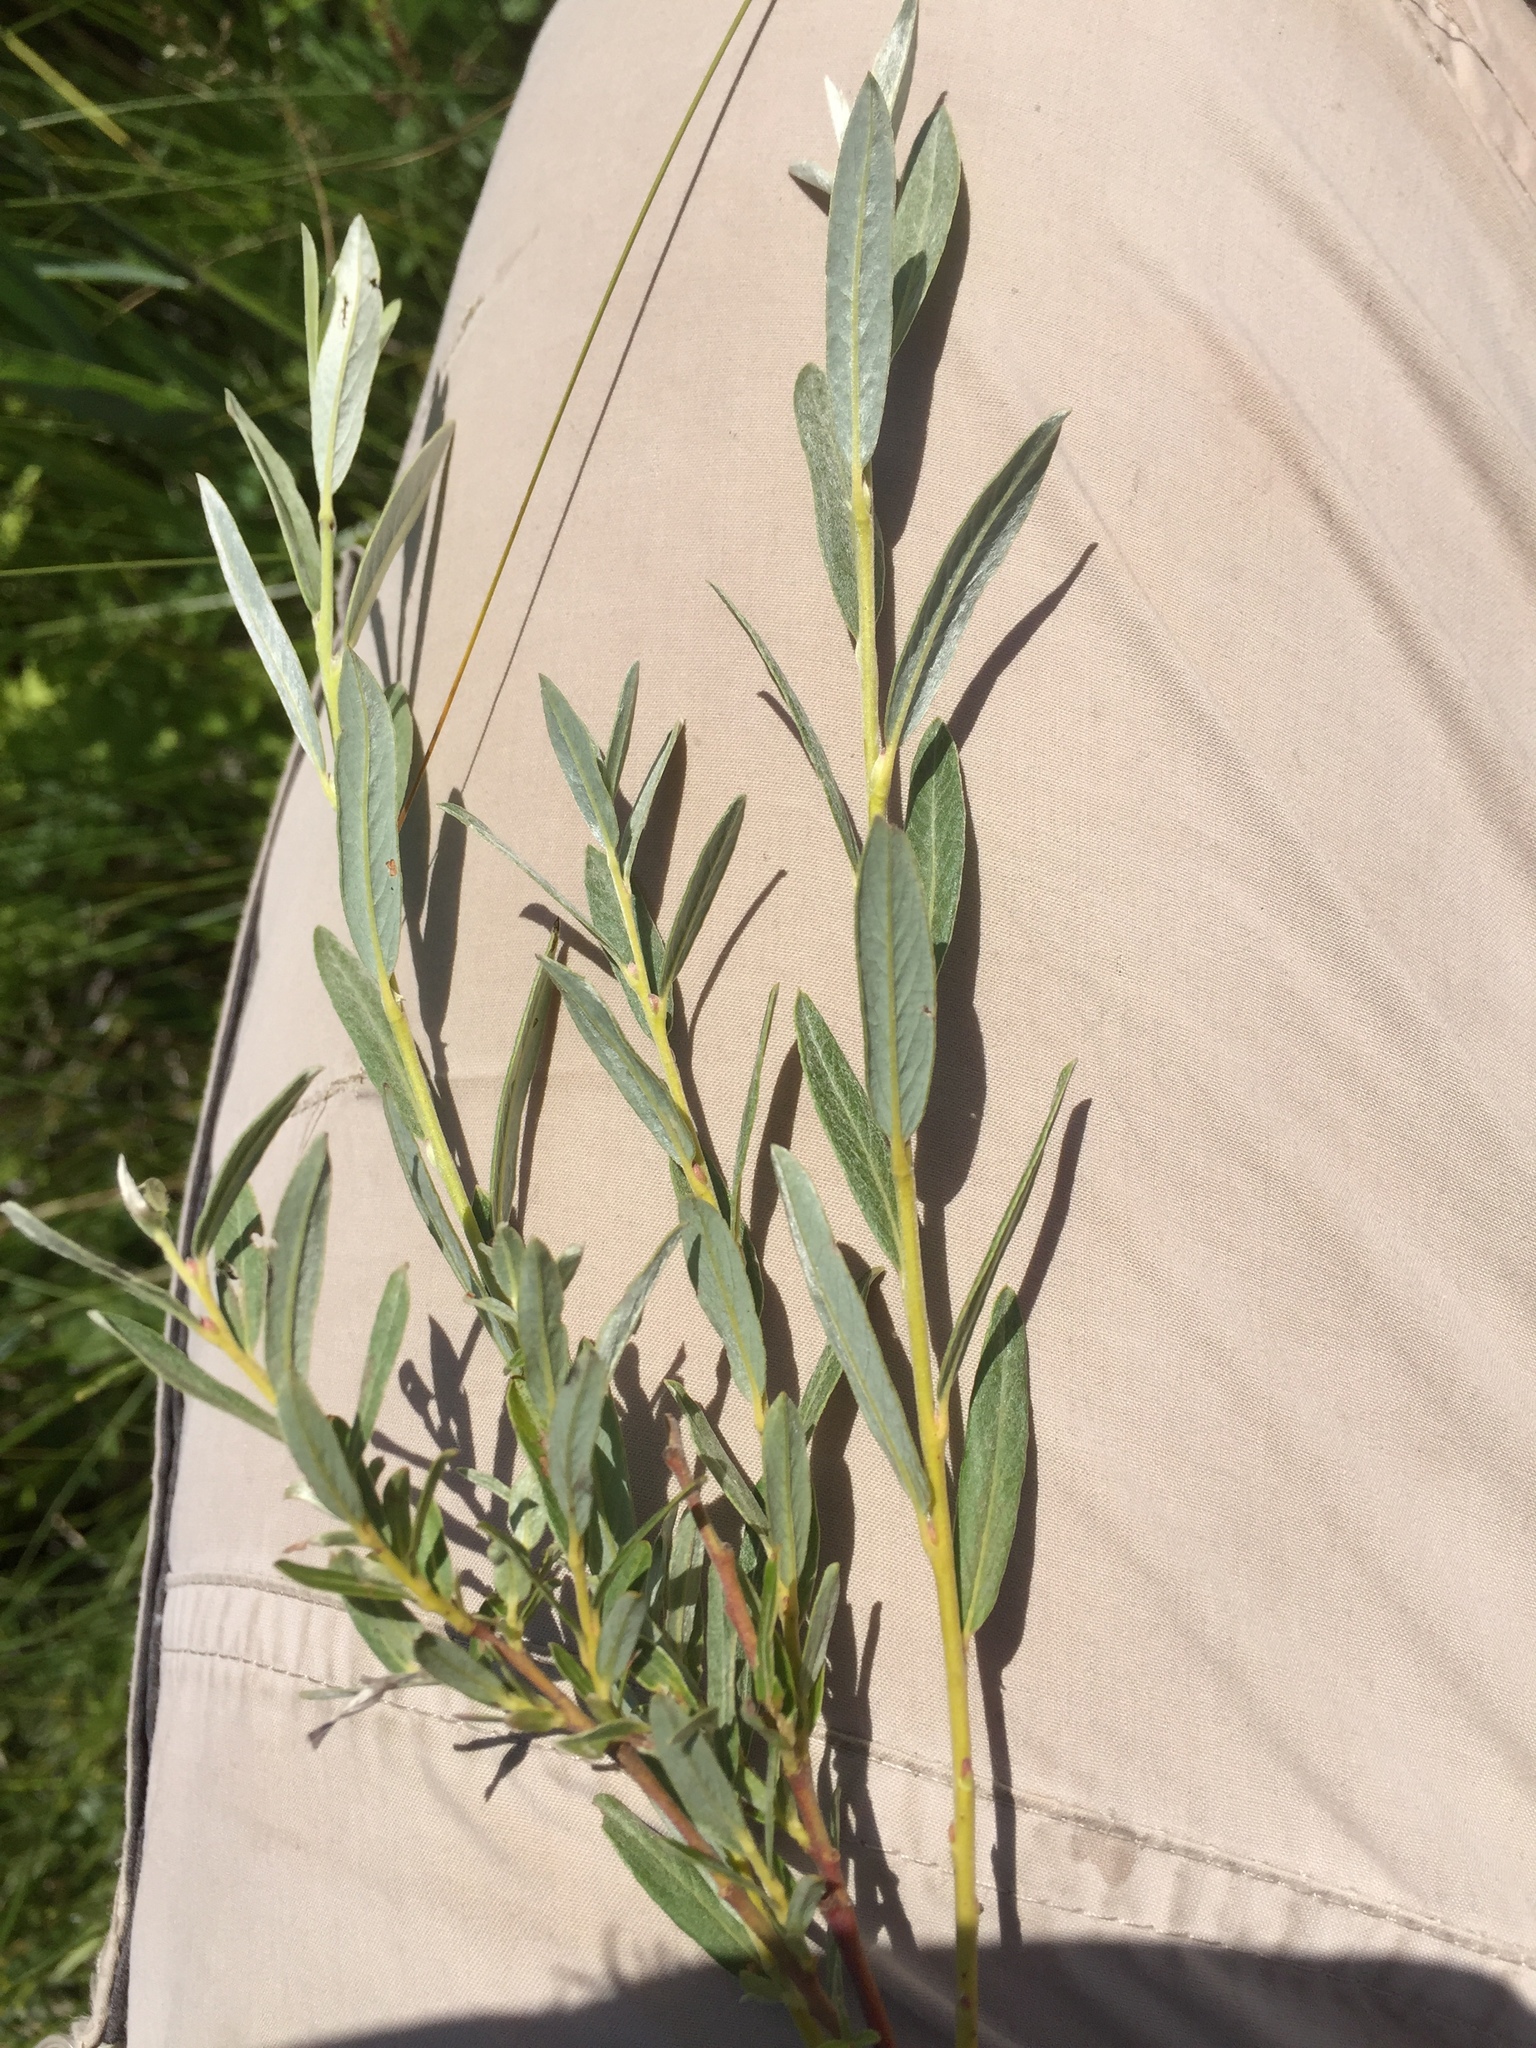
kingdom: Plantae
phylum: Tracheophyta
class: Magnoliopsida
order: Malpighiales
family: Salicaceae
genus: Salix
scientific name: Salix rosmarinifolia
